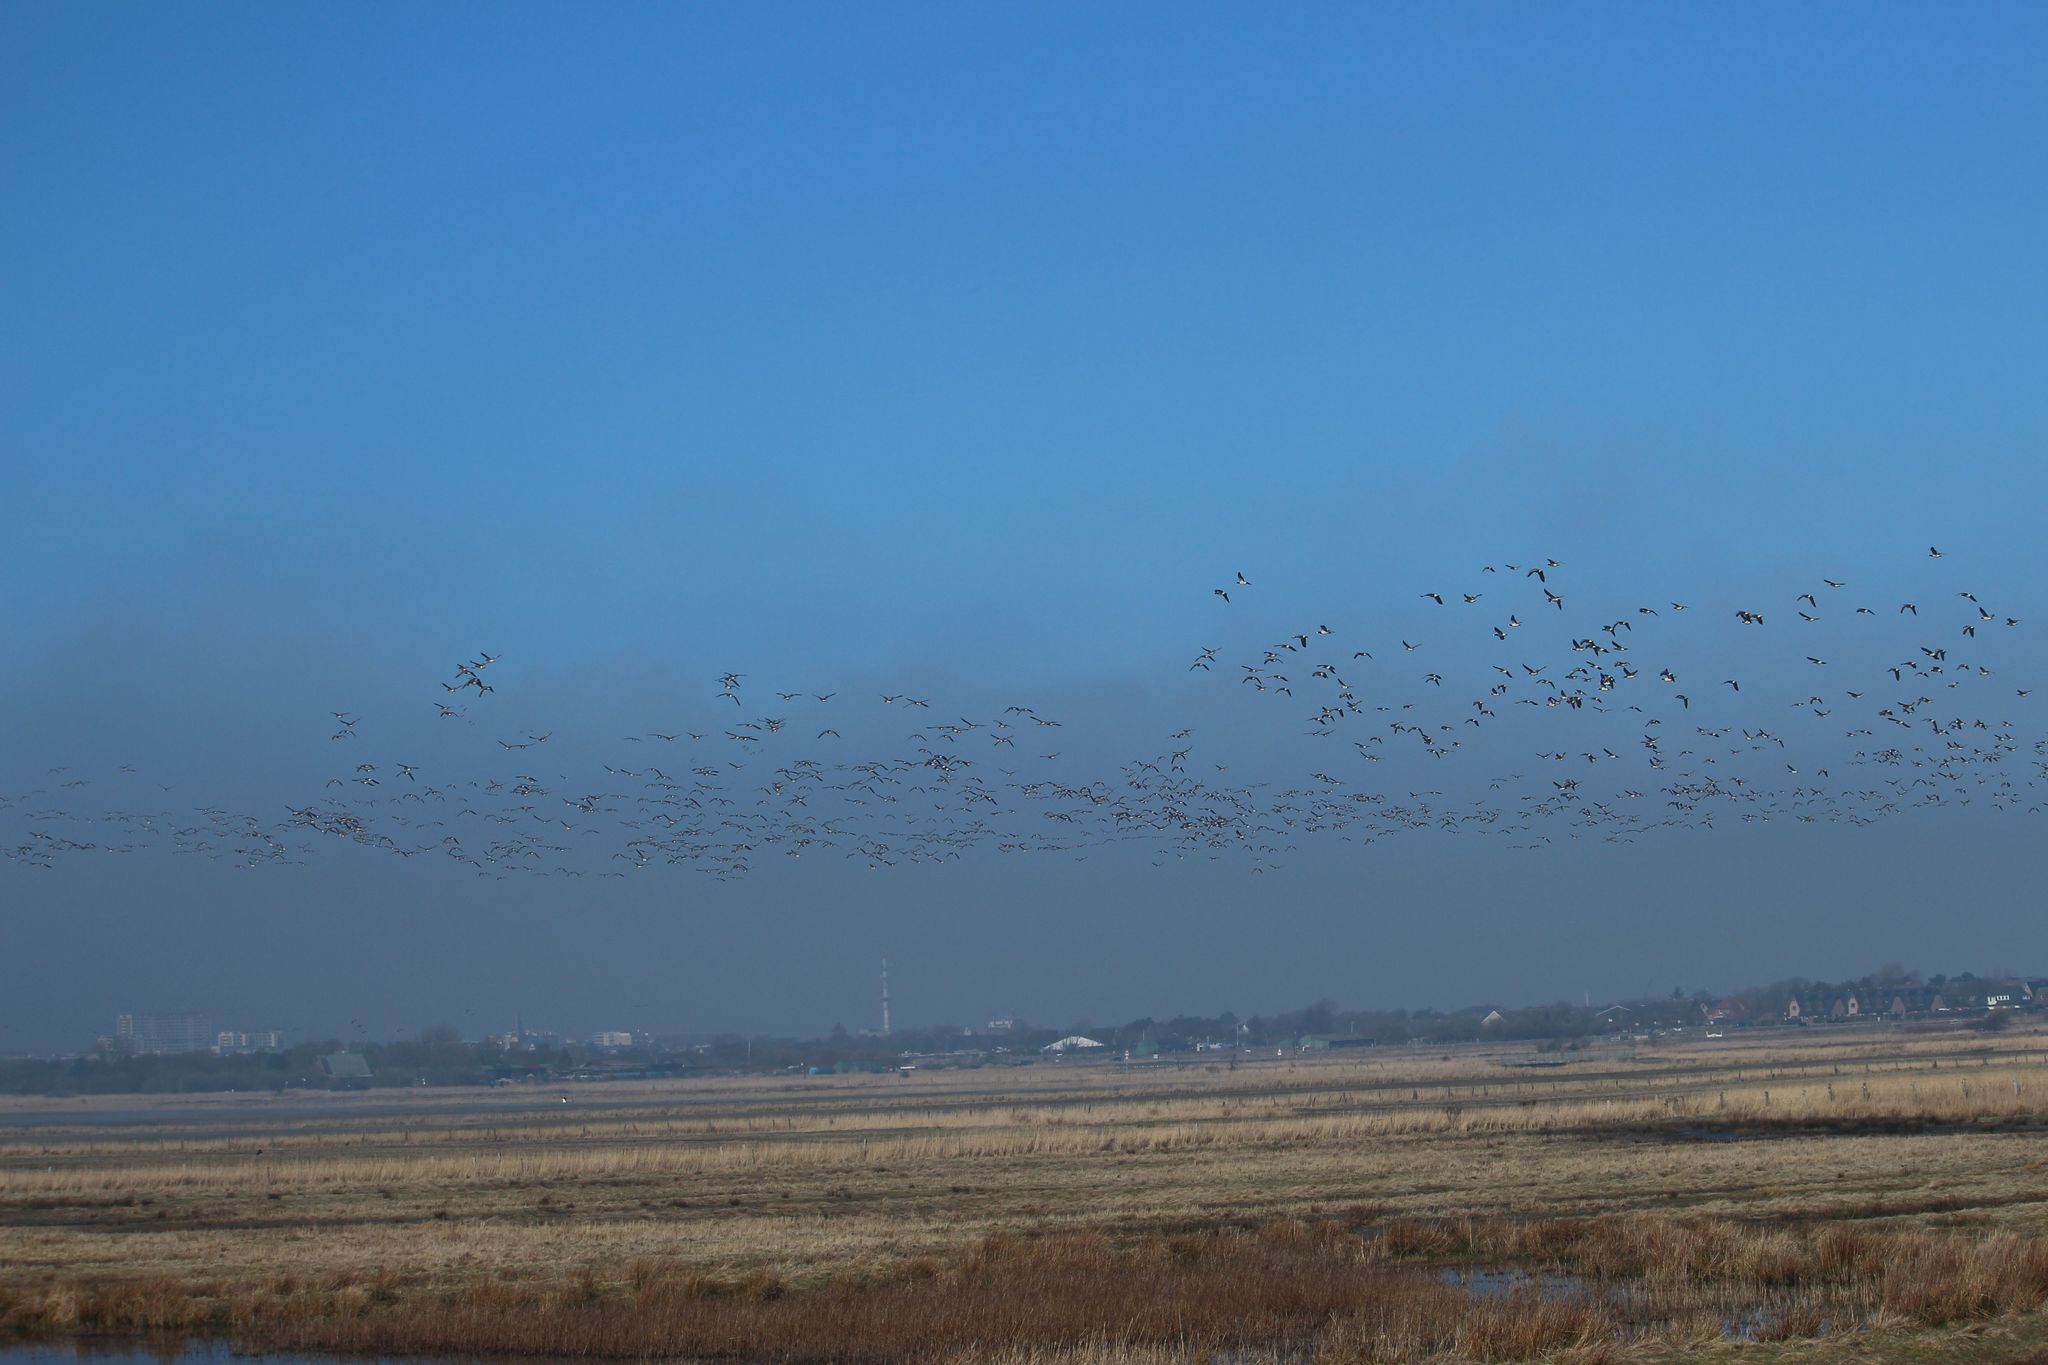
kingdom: Animalia
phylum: Chordata
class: Aves
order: Anseriformes
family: Anatidae
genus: Branta
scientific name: Branta leucopsis
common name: Barnacle goose
